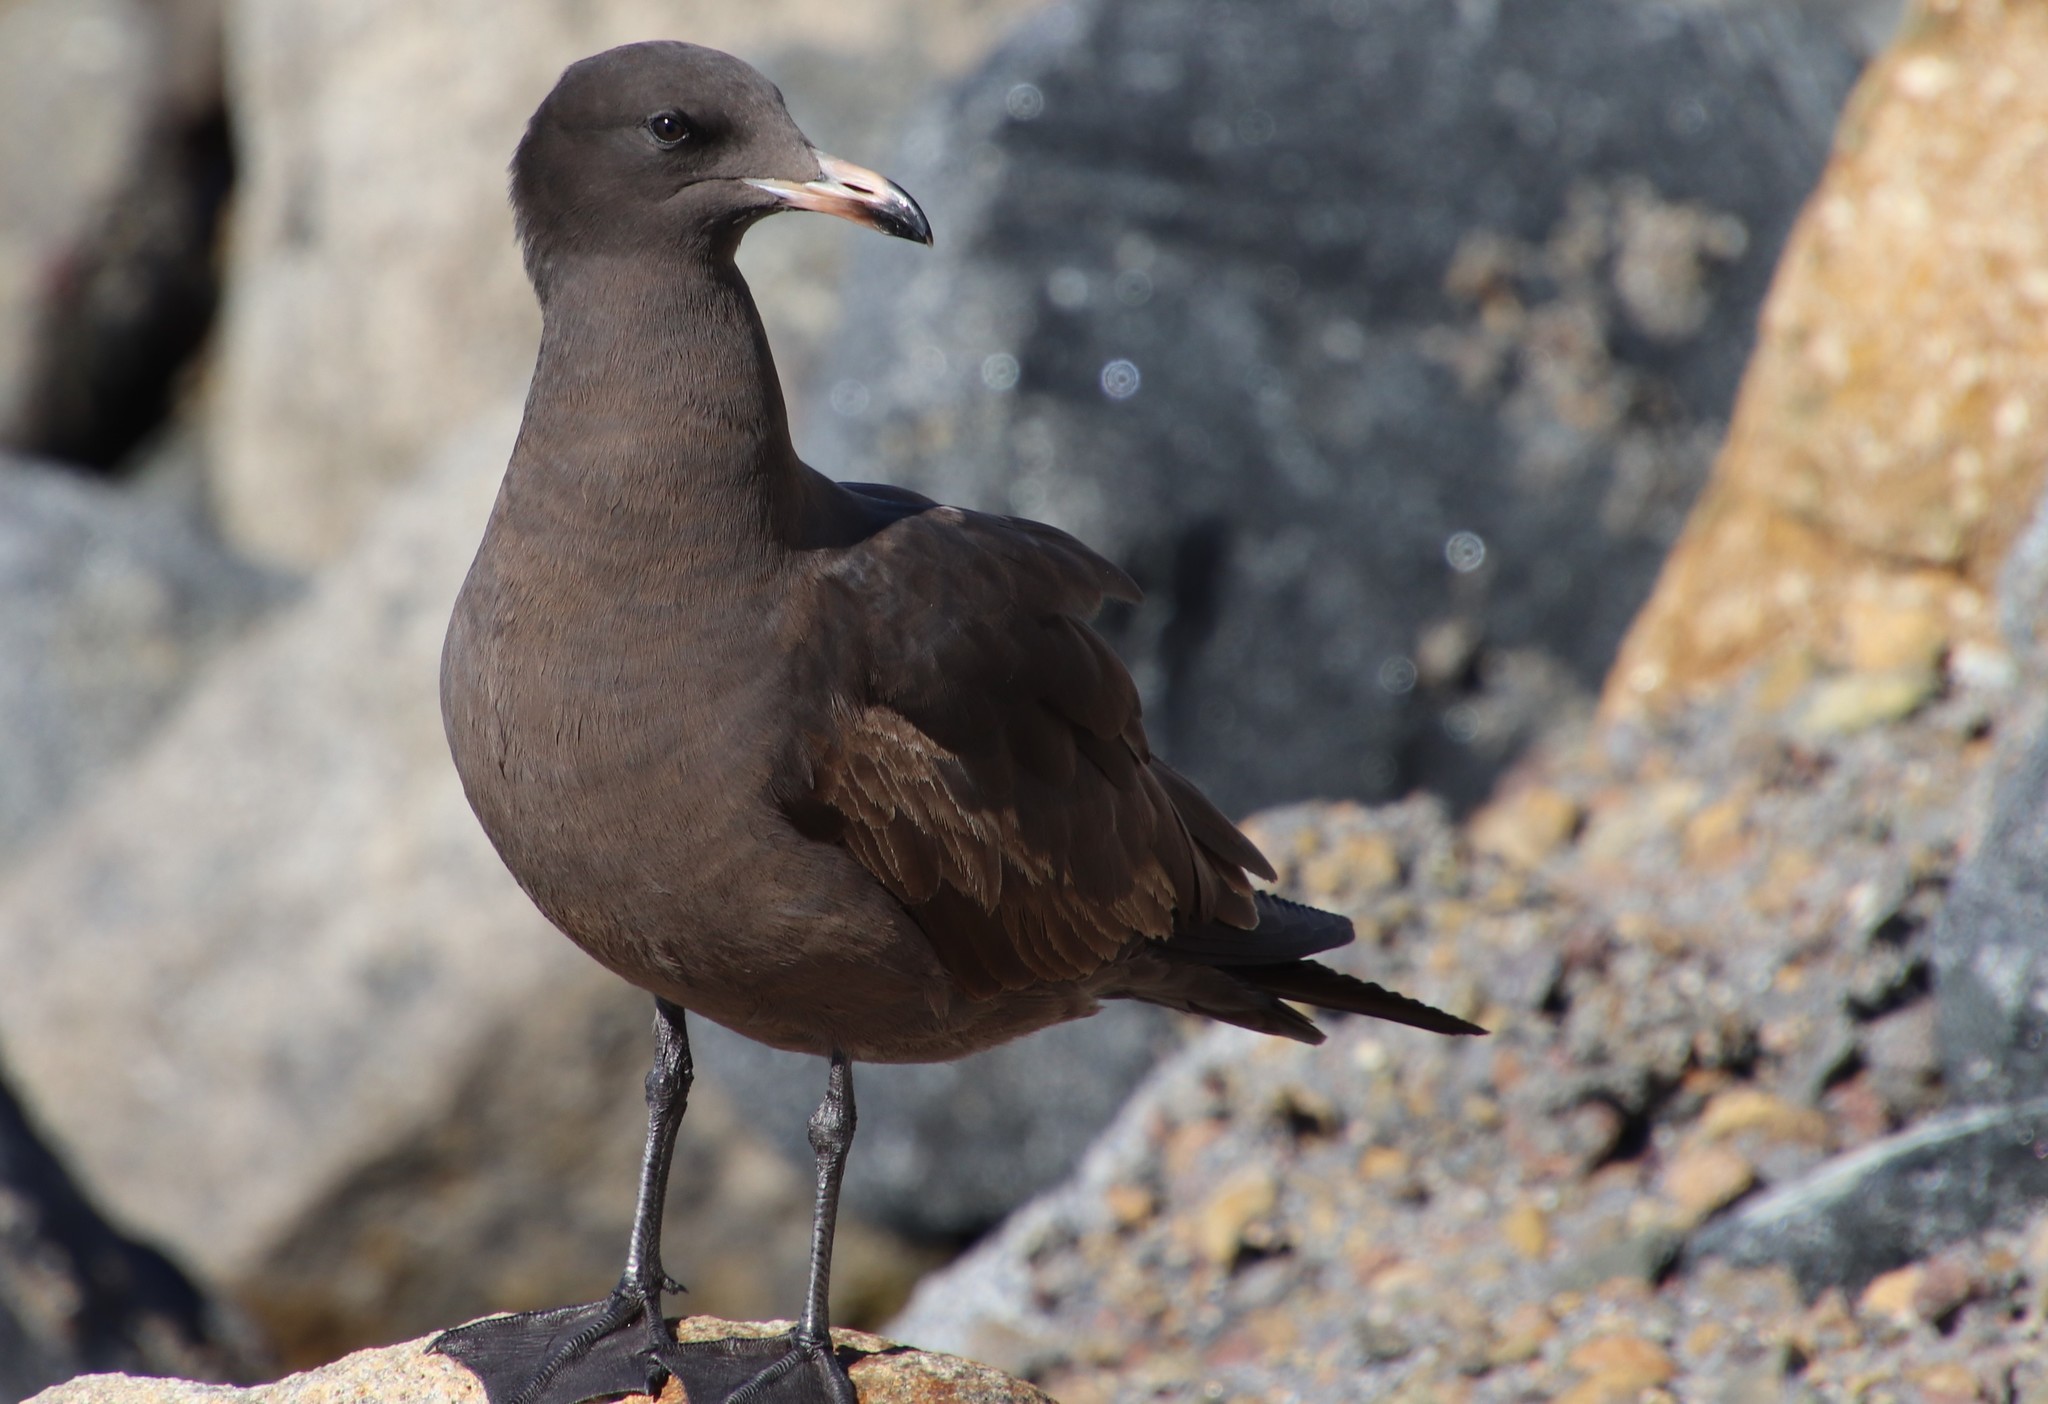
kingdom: Animalia
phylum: Chordata
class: Aves
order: Charadriiformes
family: Laridae
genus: Larus
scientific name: Larus heermanni
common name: Heermann's gull
